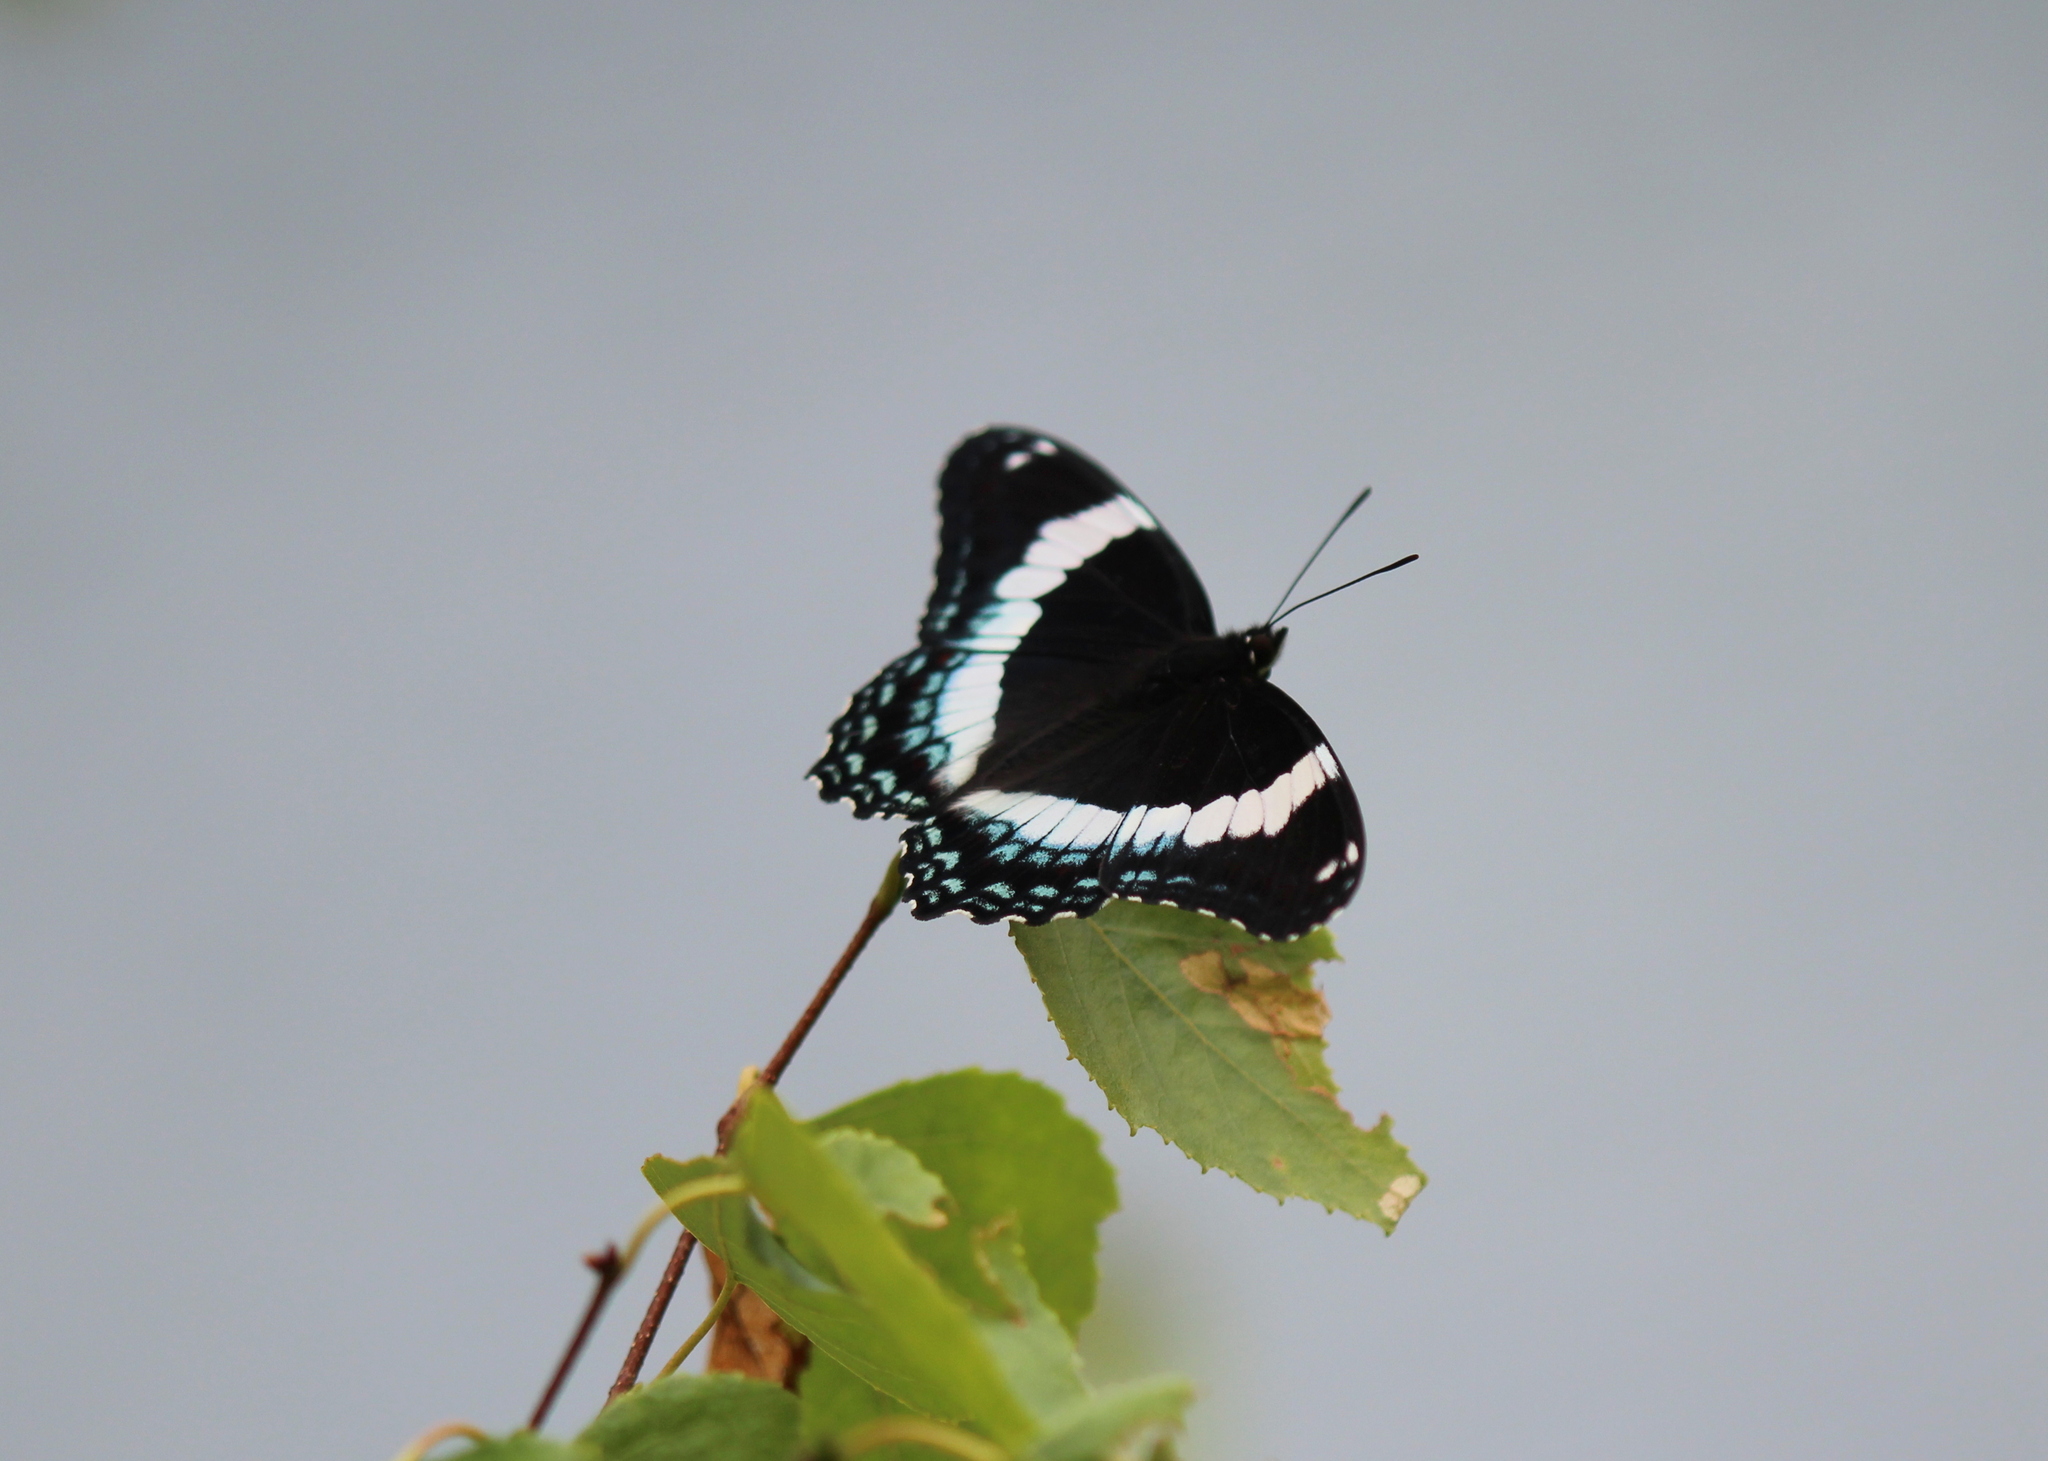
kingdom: Animalia
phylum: Arthropoda
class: Insecta
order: Lepidoptera
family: Nymphalidae
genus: Limenitis
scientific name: Limenitis arthemis
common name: Red-spotted admiral
